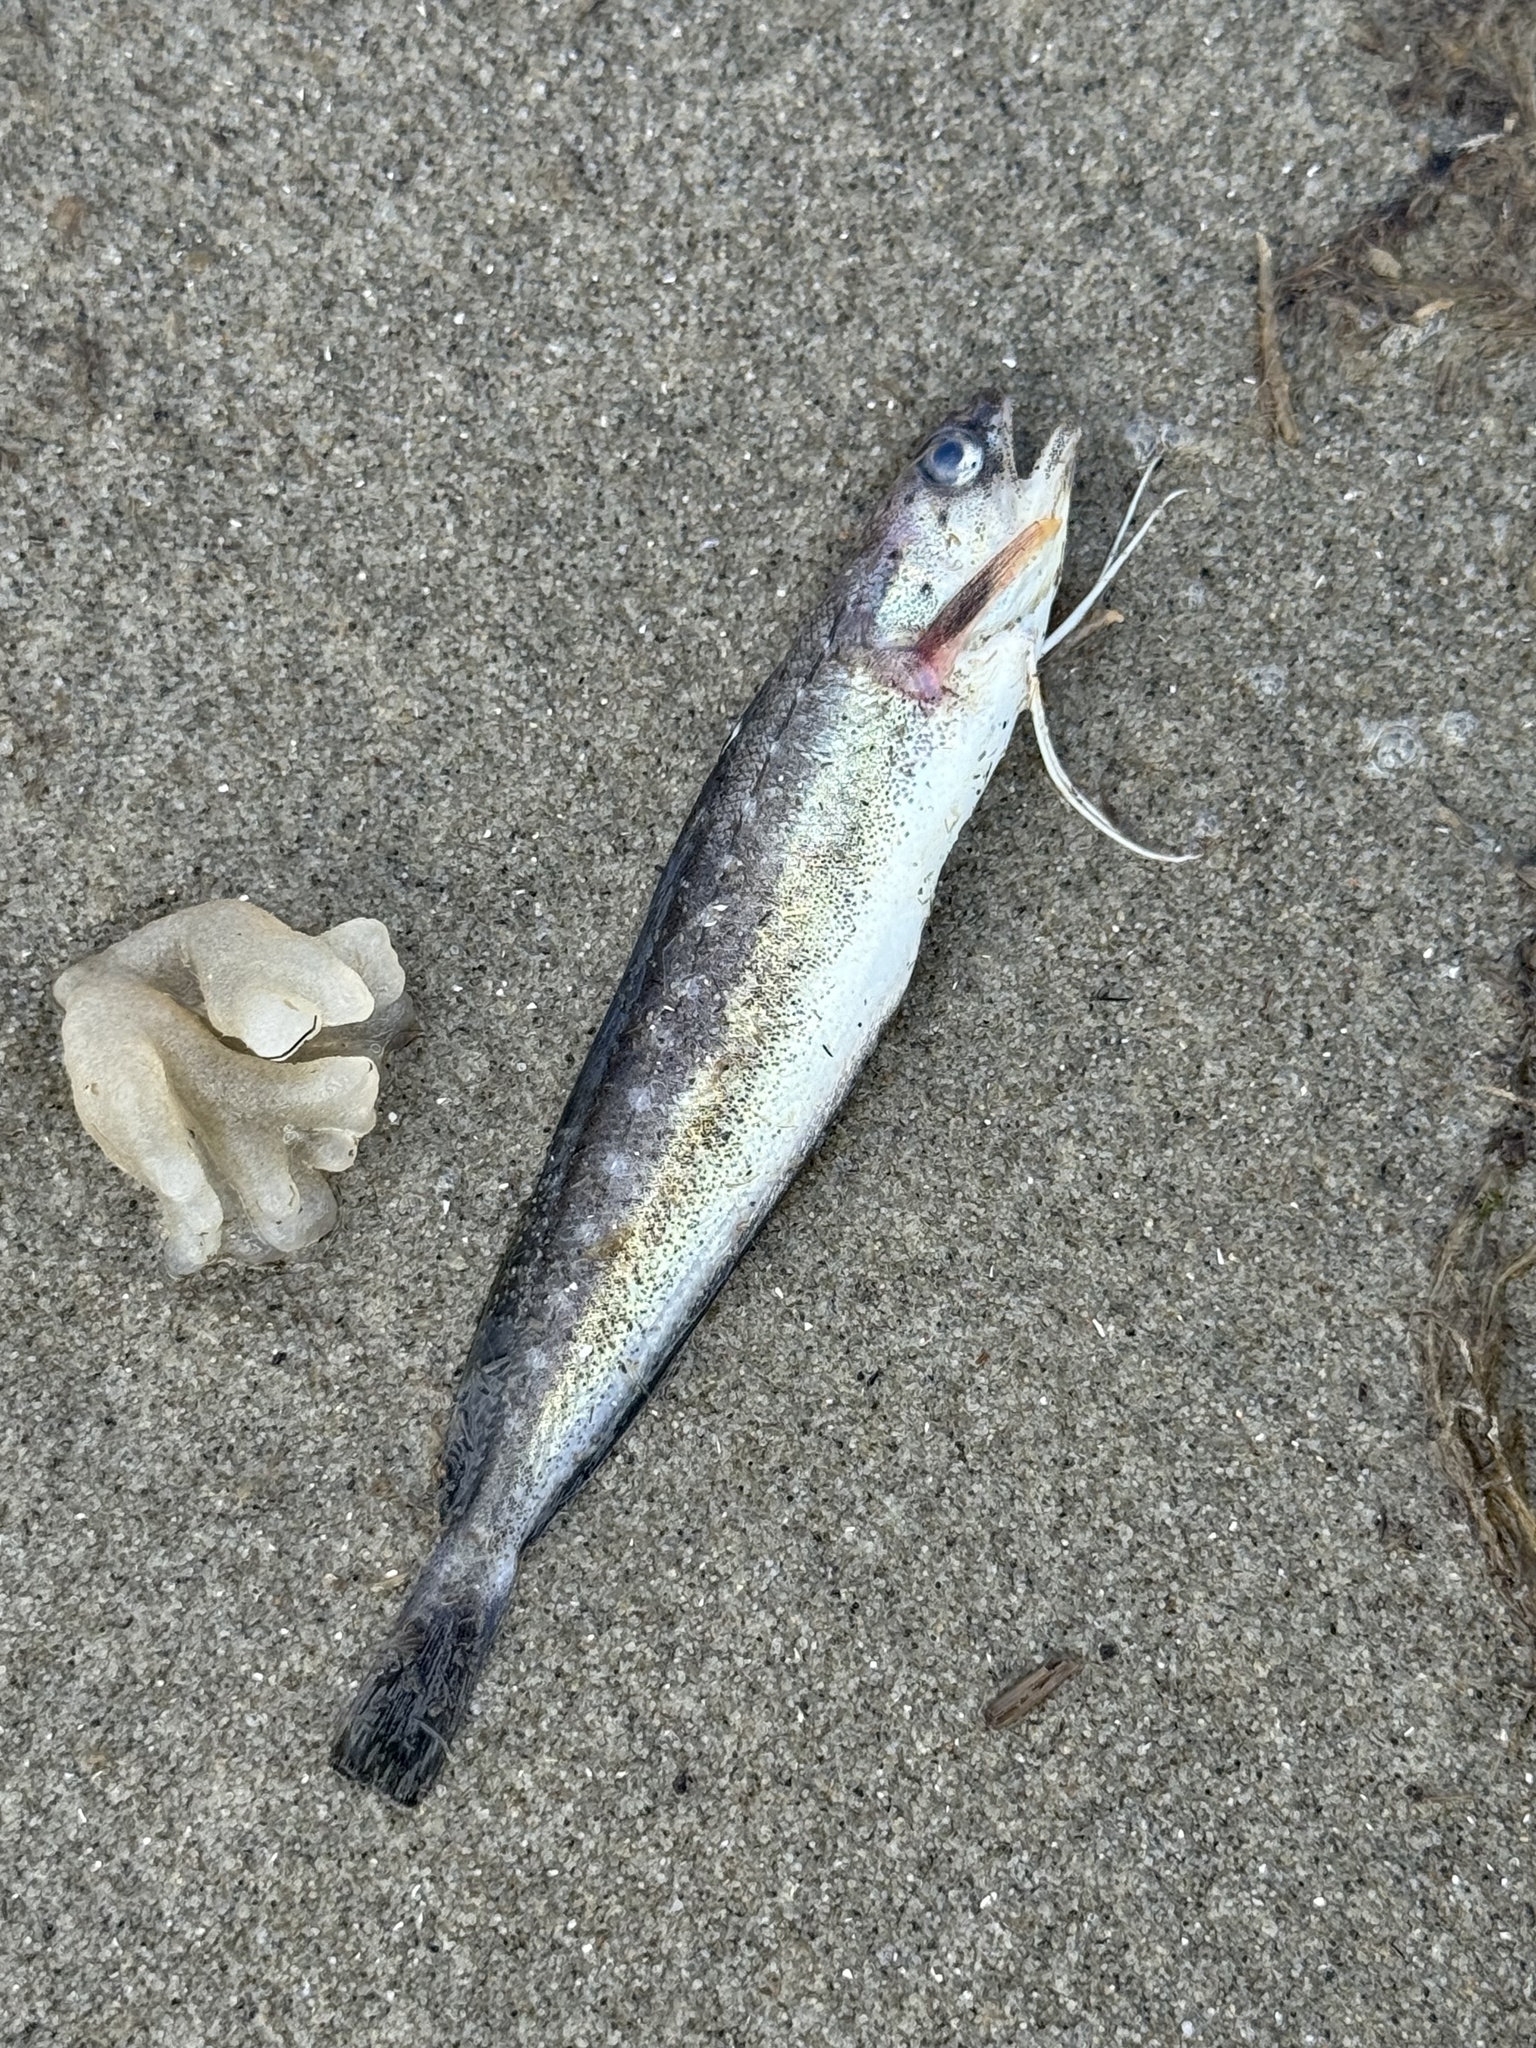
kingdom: Animalia
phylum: Chordata
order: Gadiformes
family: Phycidae
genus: Urophycis
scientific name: Urophycis regia
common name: Spotted codling
